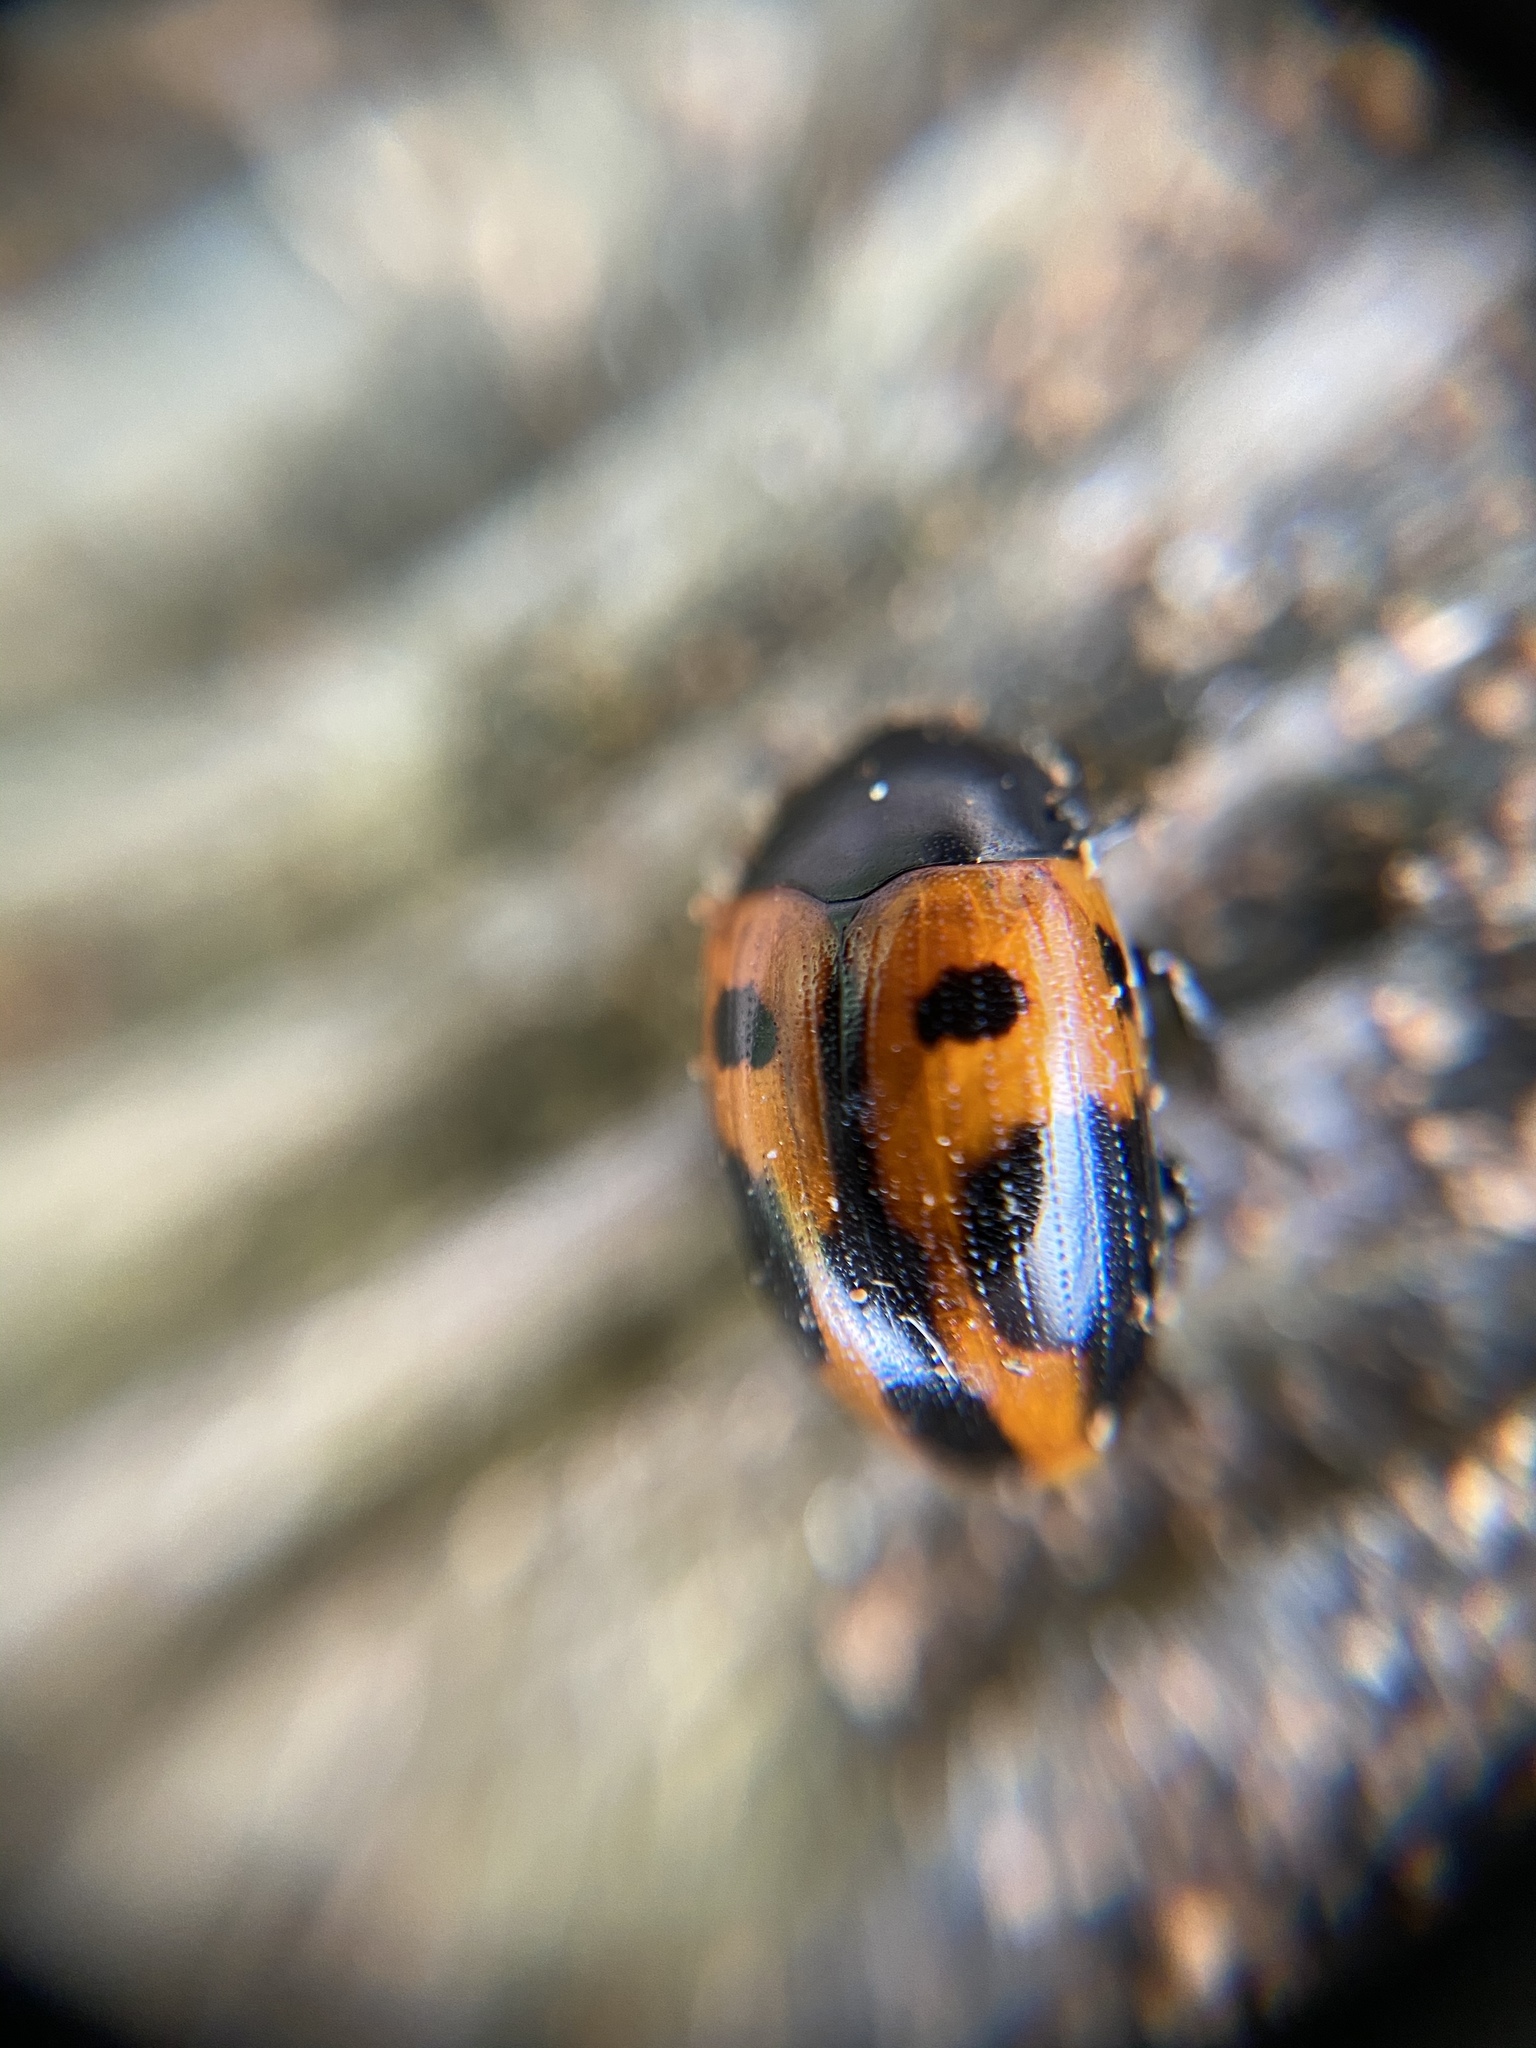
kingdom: Animalia
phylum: Arthropoda
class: Insecta
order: Coleoptera
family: Tenebrionidae
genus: Diaperis
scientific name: Diaperis maculata
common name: Darkling beetle
